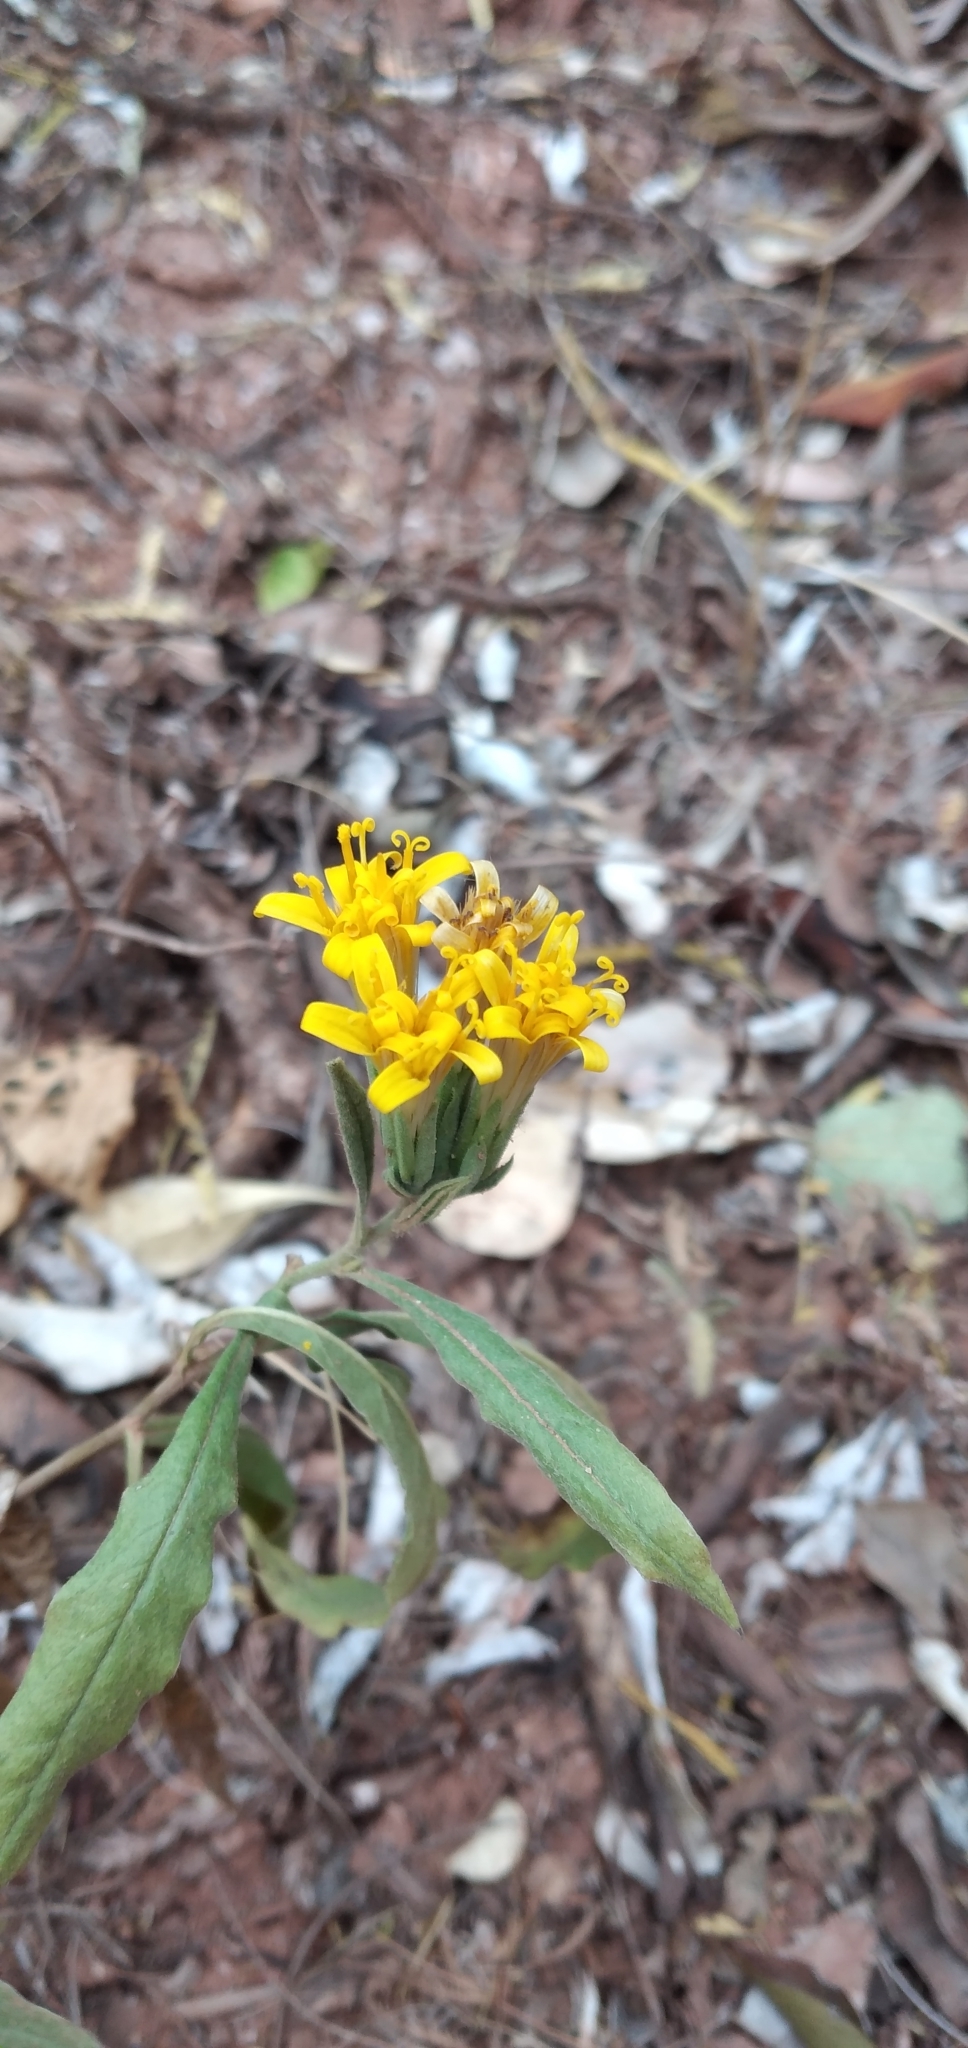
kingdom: Plantae
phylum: Tracheophyta
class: Magnoliopsida
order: Asterales
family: Asteraceae
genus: Trixis
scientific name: Trixis cacalioides
